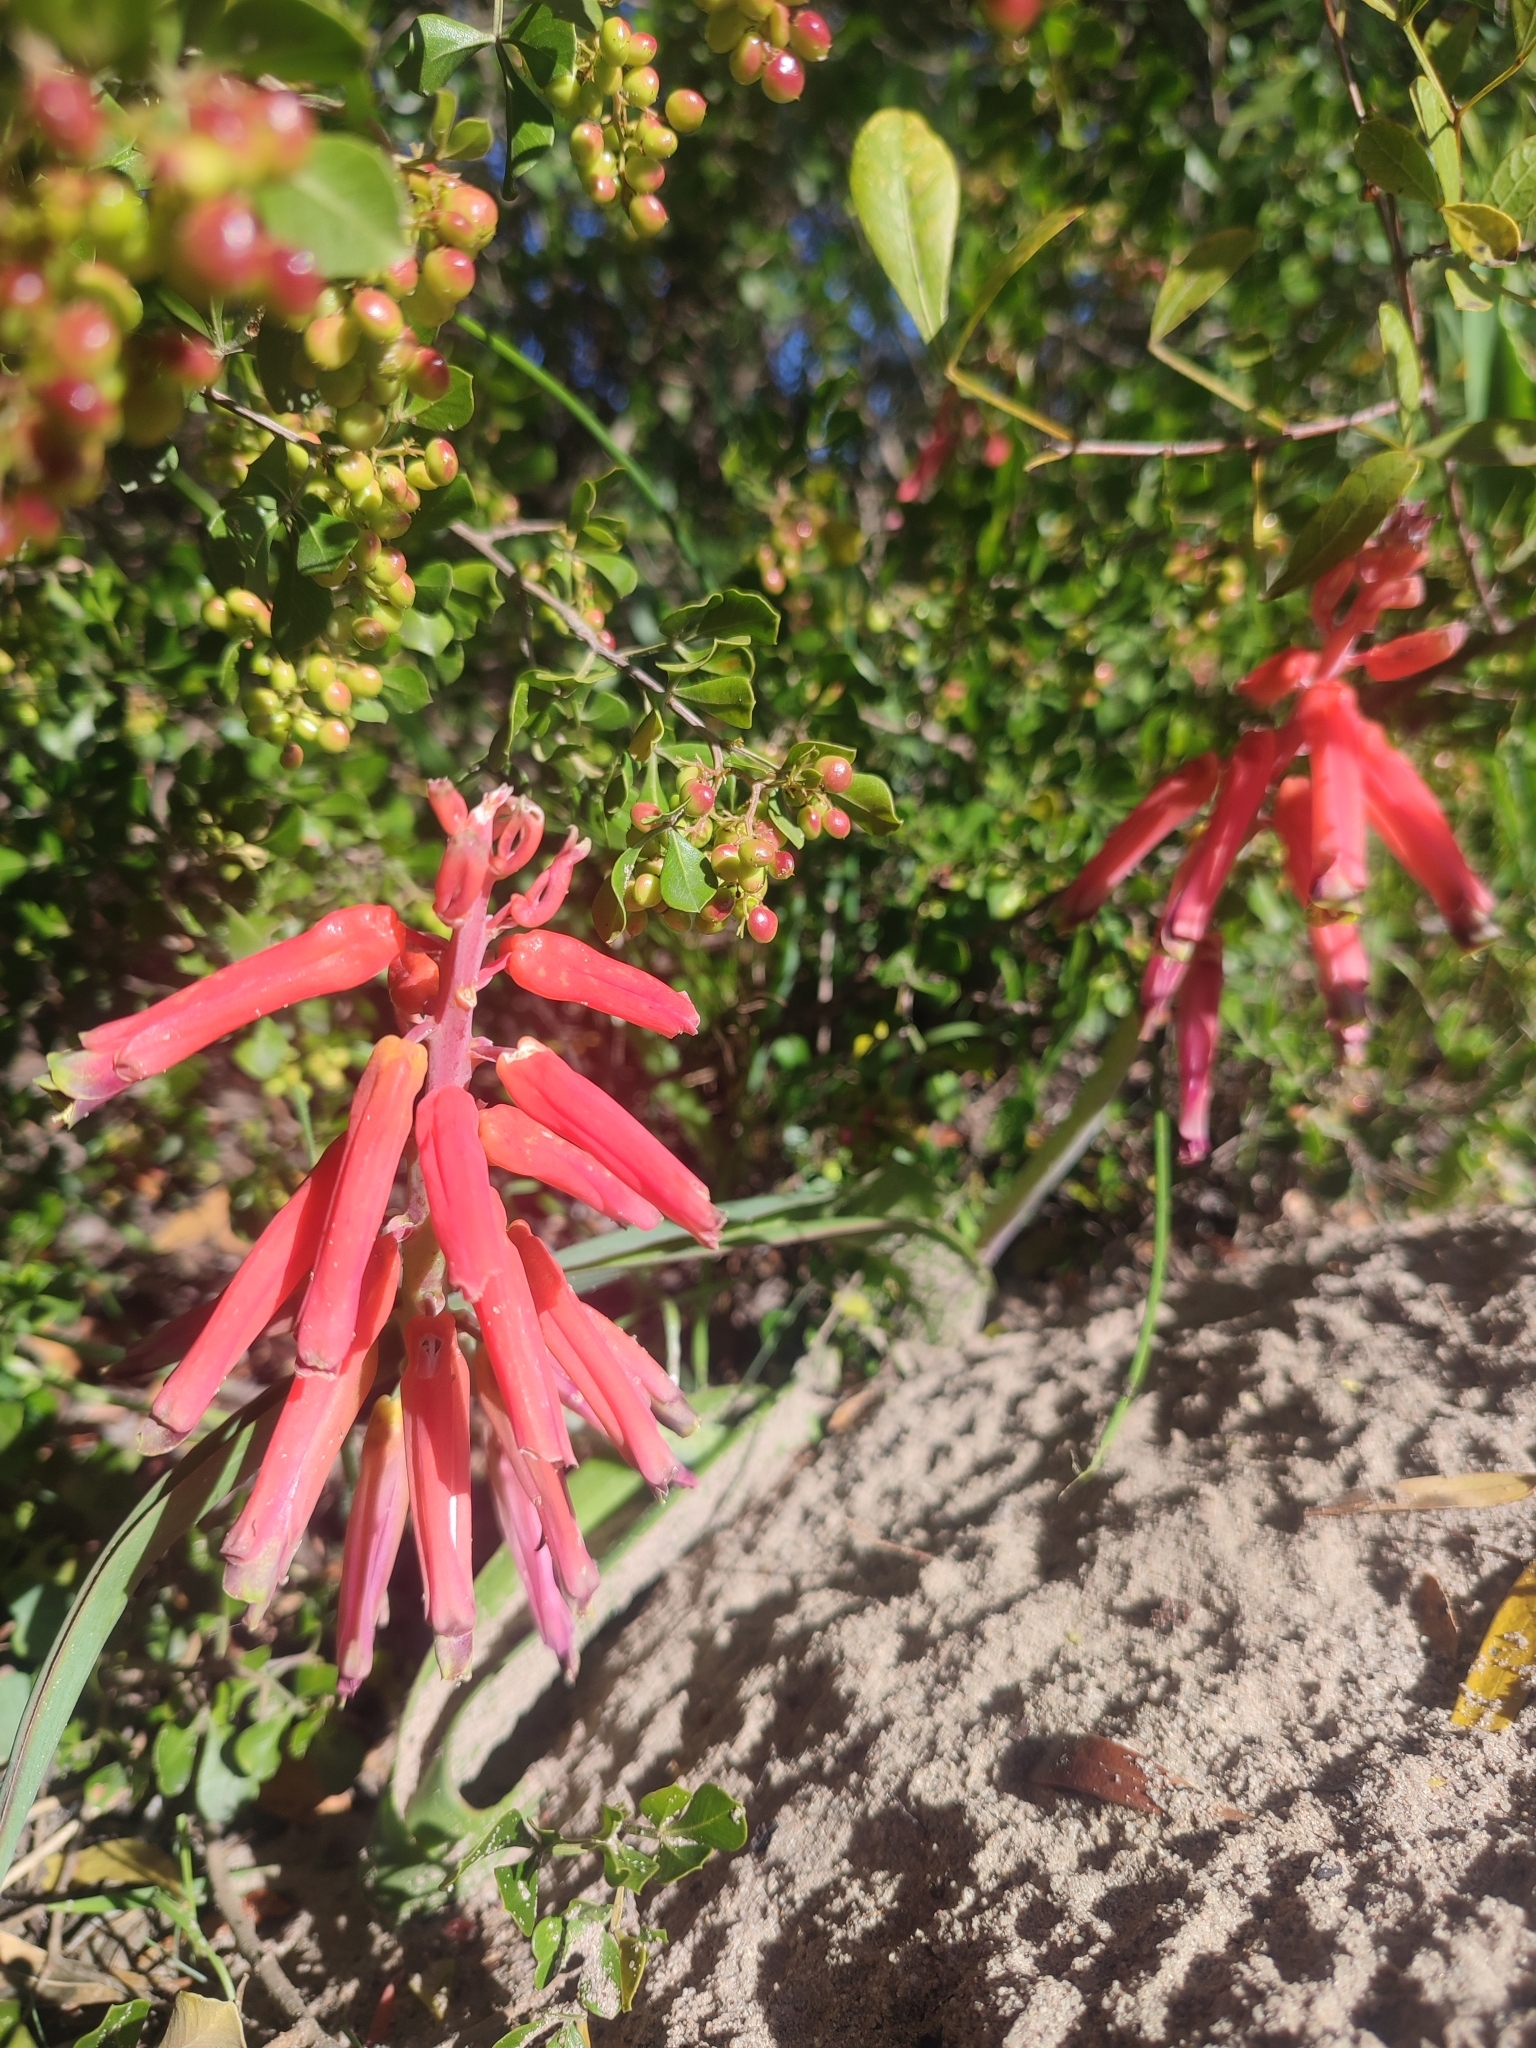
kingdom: Plantae
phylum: Tracheophyta
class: Liliopsida
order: Asparagales
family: Asparagaceae
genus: Lachenalia
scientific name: Lachenalia bulbifera
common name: Red lachenalia
